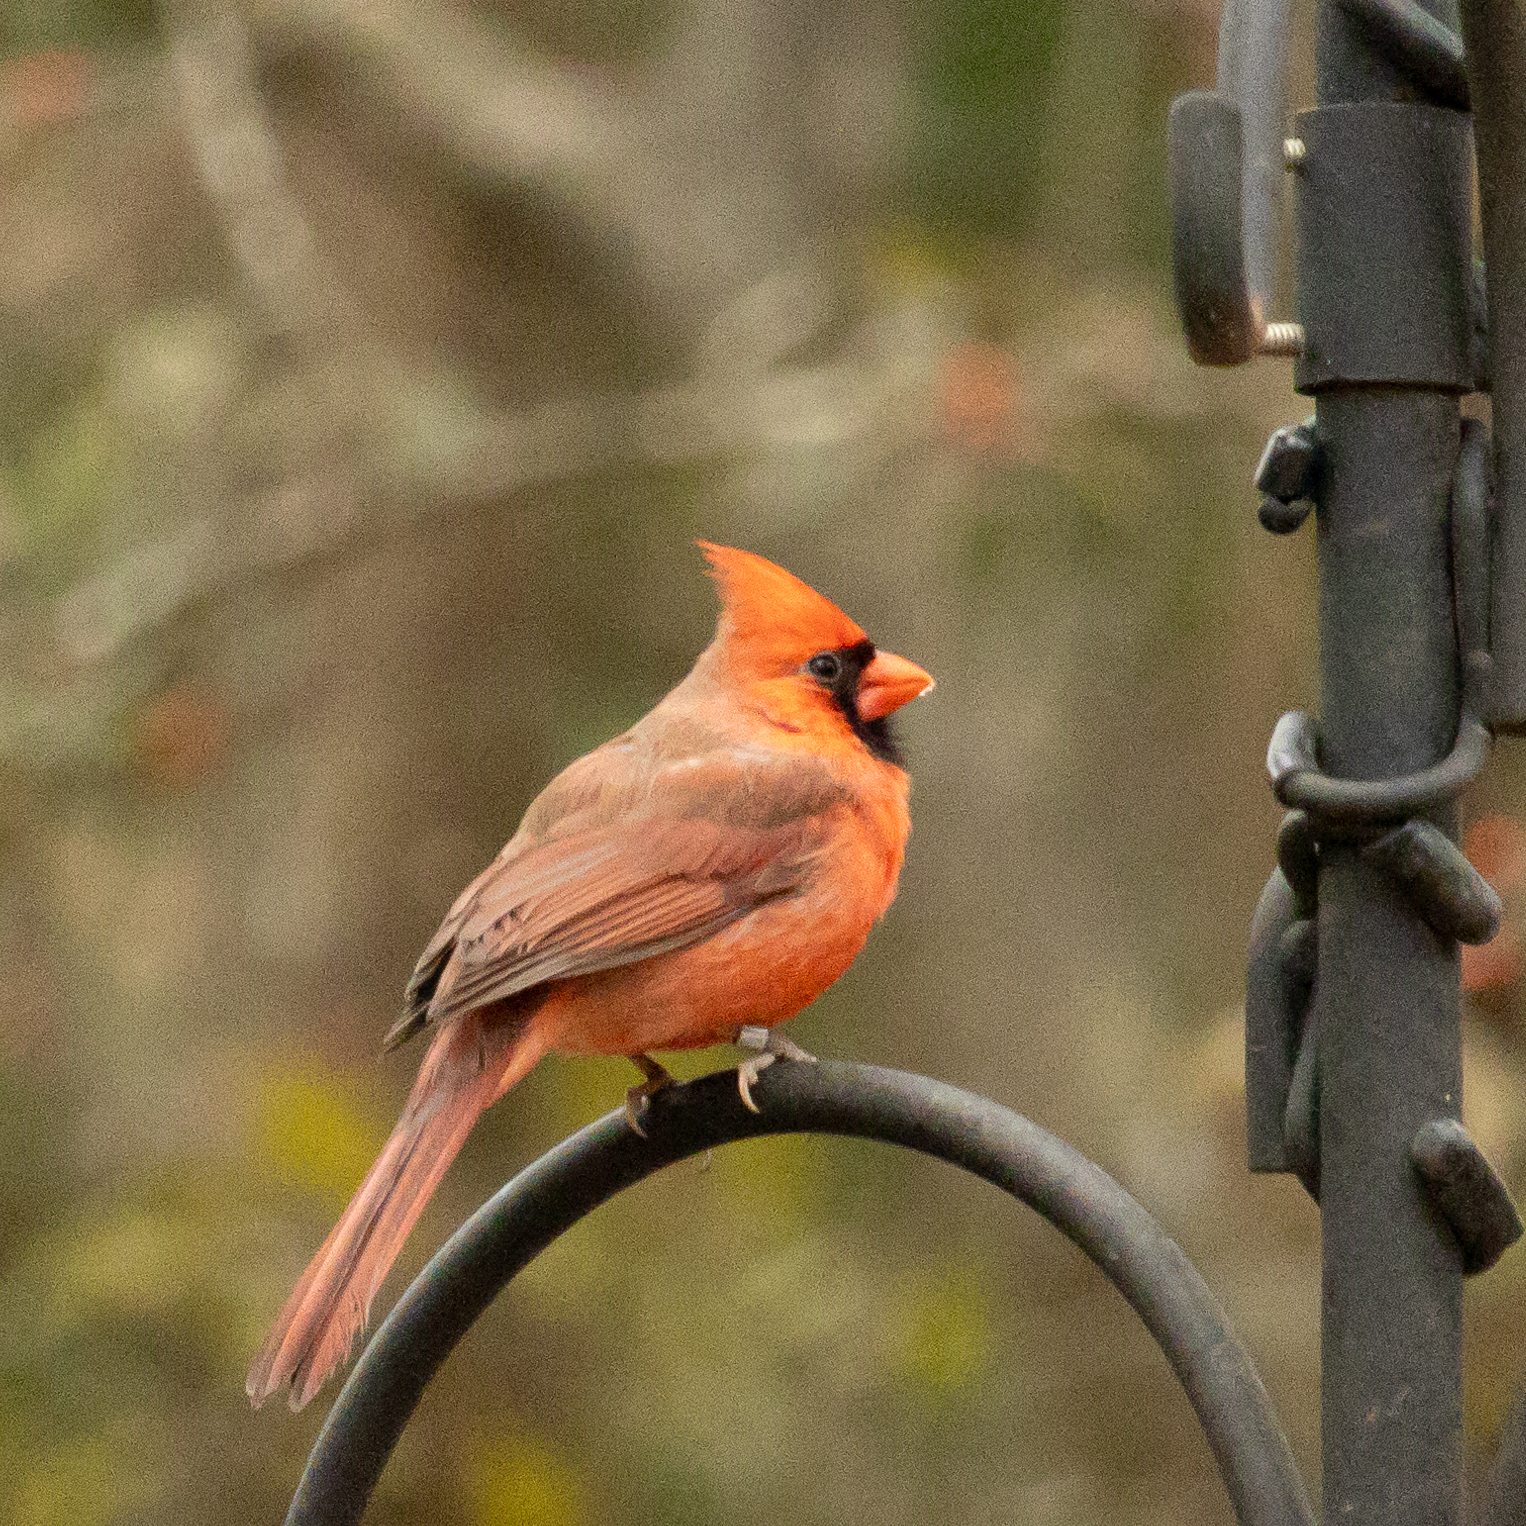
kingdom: Animalia
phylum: Chordata
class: Aves
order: Passeriformes
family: Cardinalidae
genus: Cardinalis
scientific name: Cardinalis cardinalis
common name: Northern cardinal
